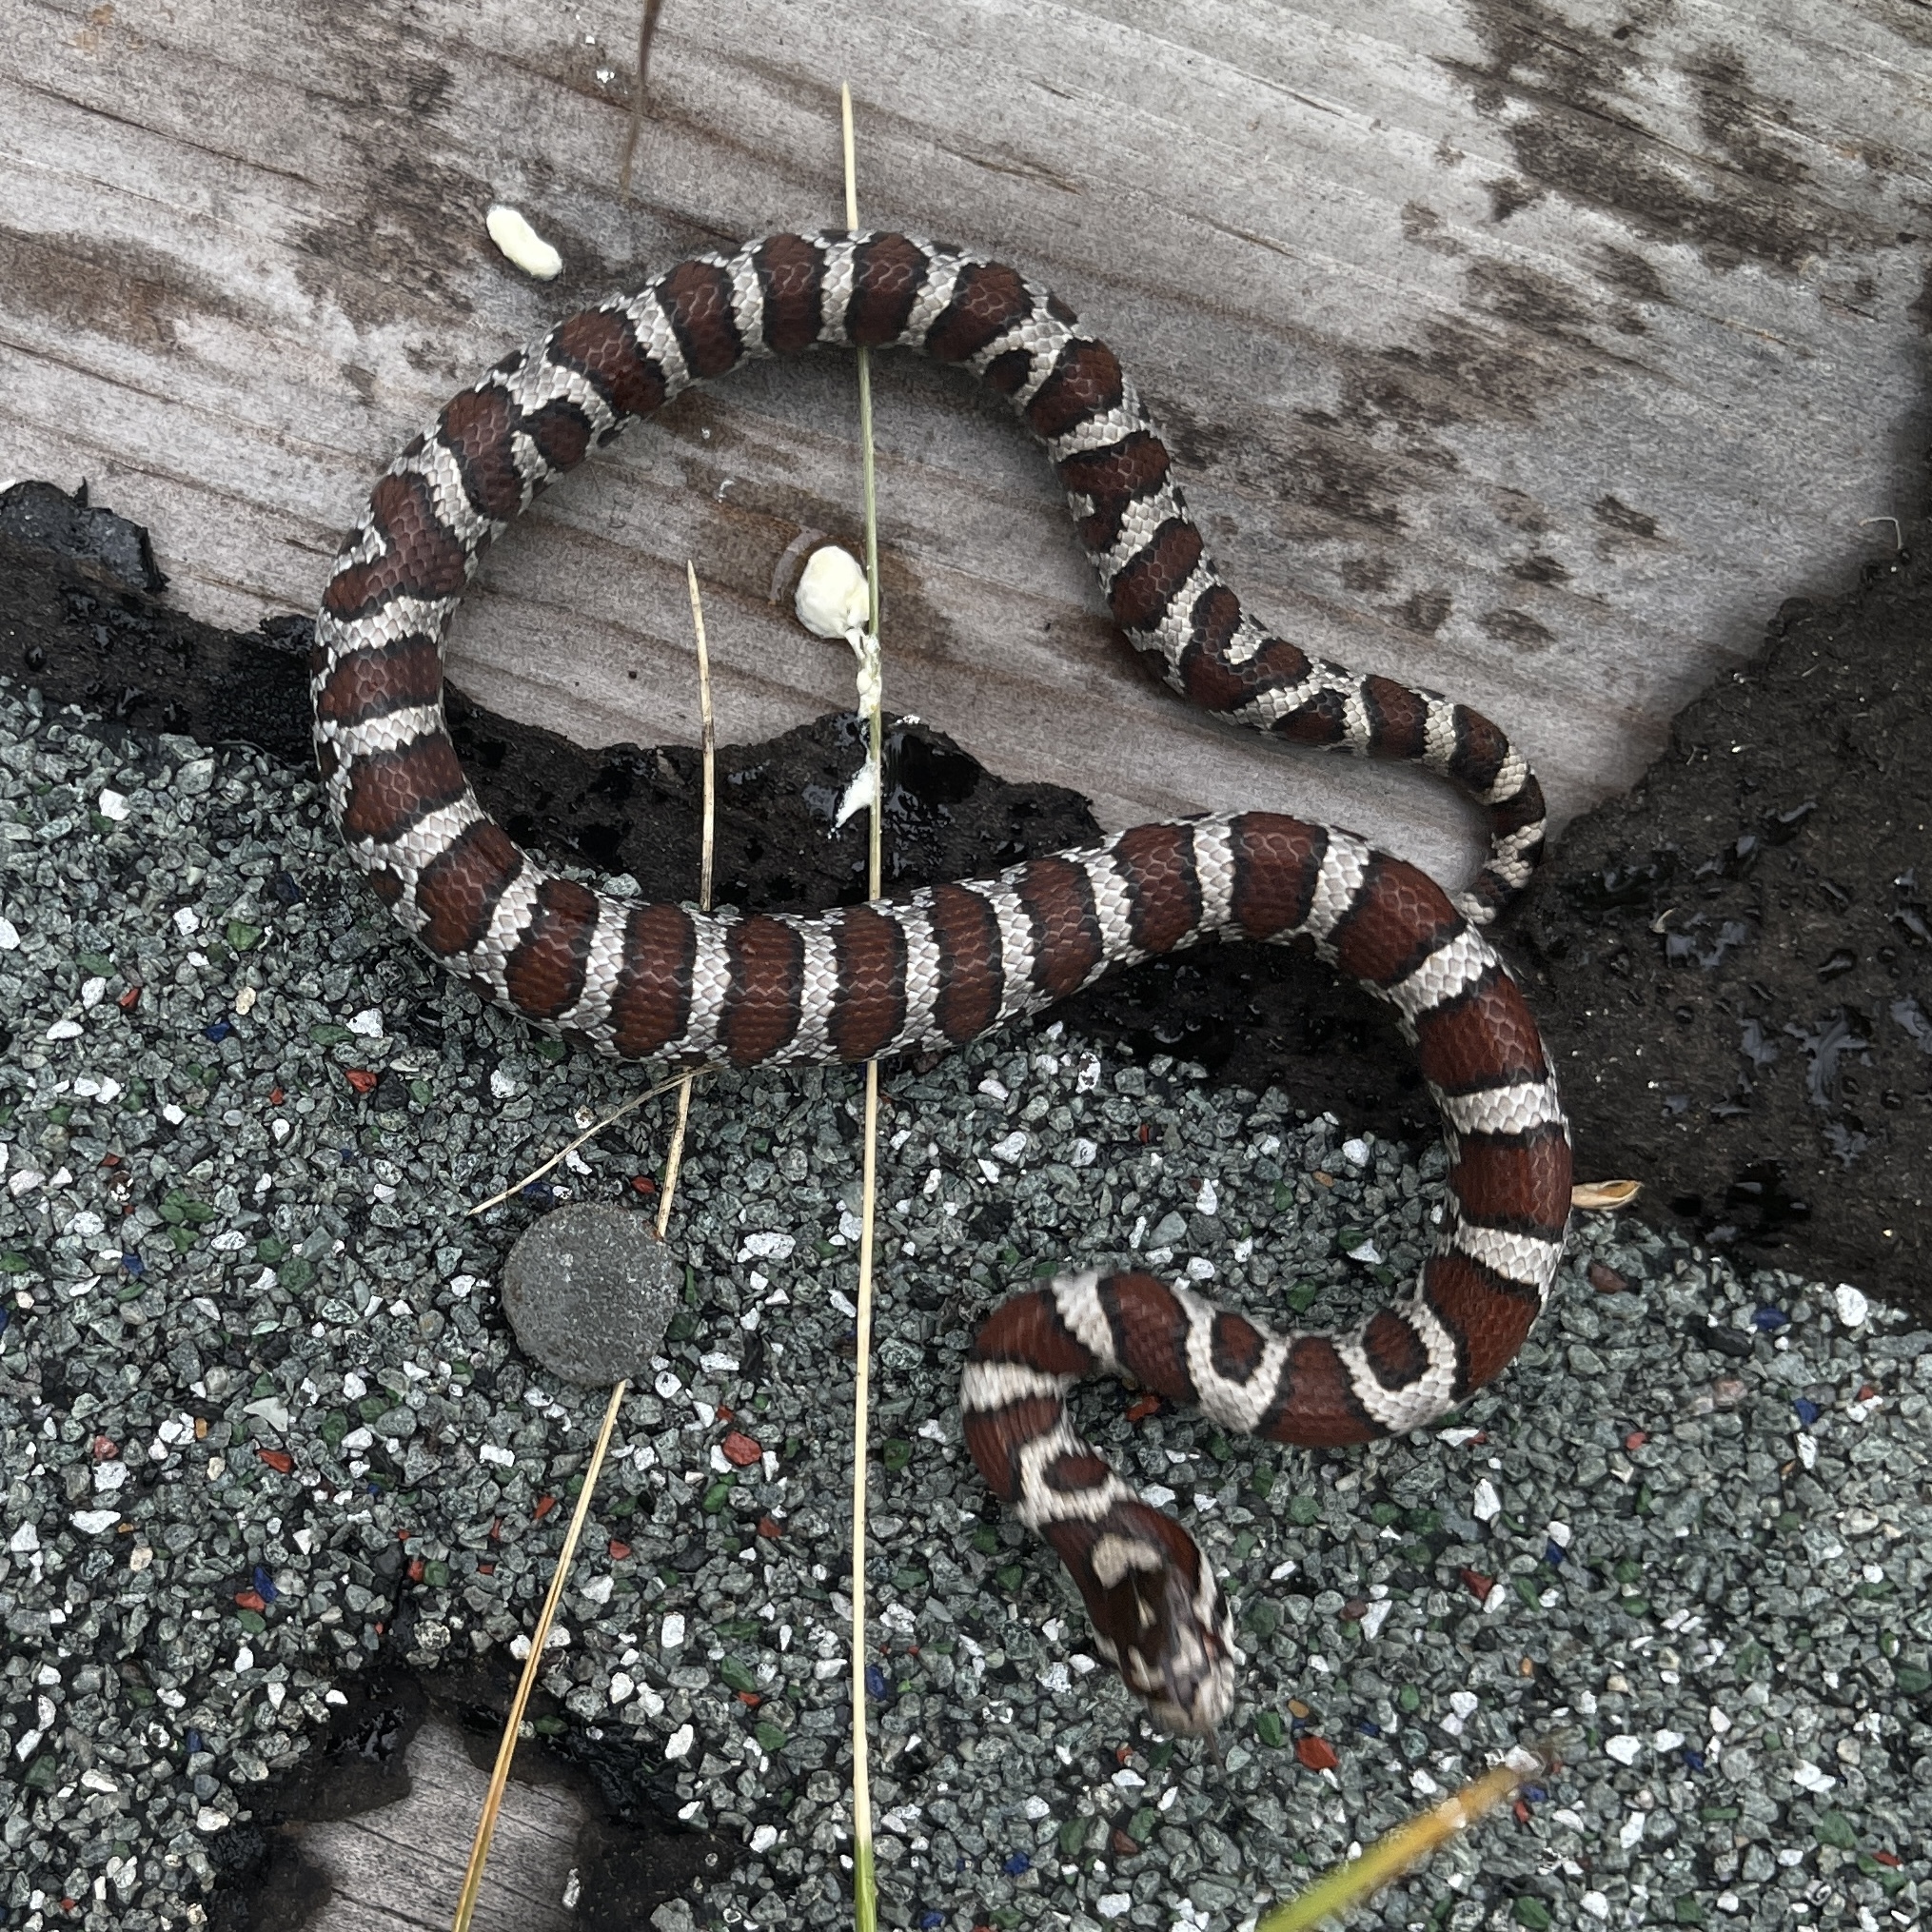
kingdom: Animalia
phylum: Chordata
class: Squamata
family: Colubridae
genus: Lampropeltis
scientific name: Lampropeltis triangulum
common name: Eastern milksnake
